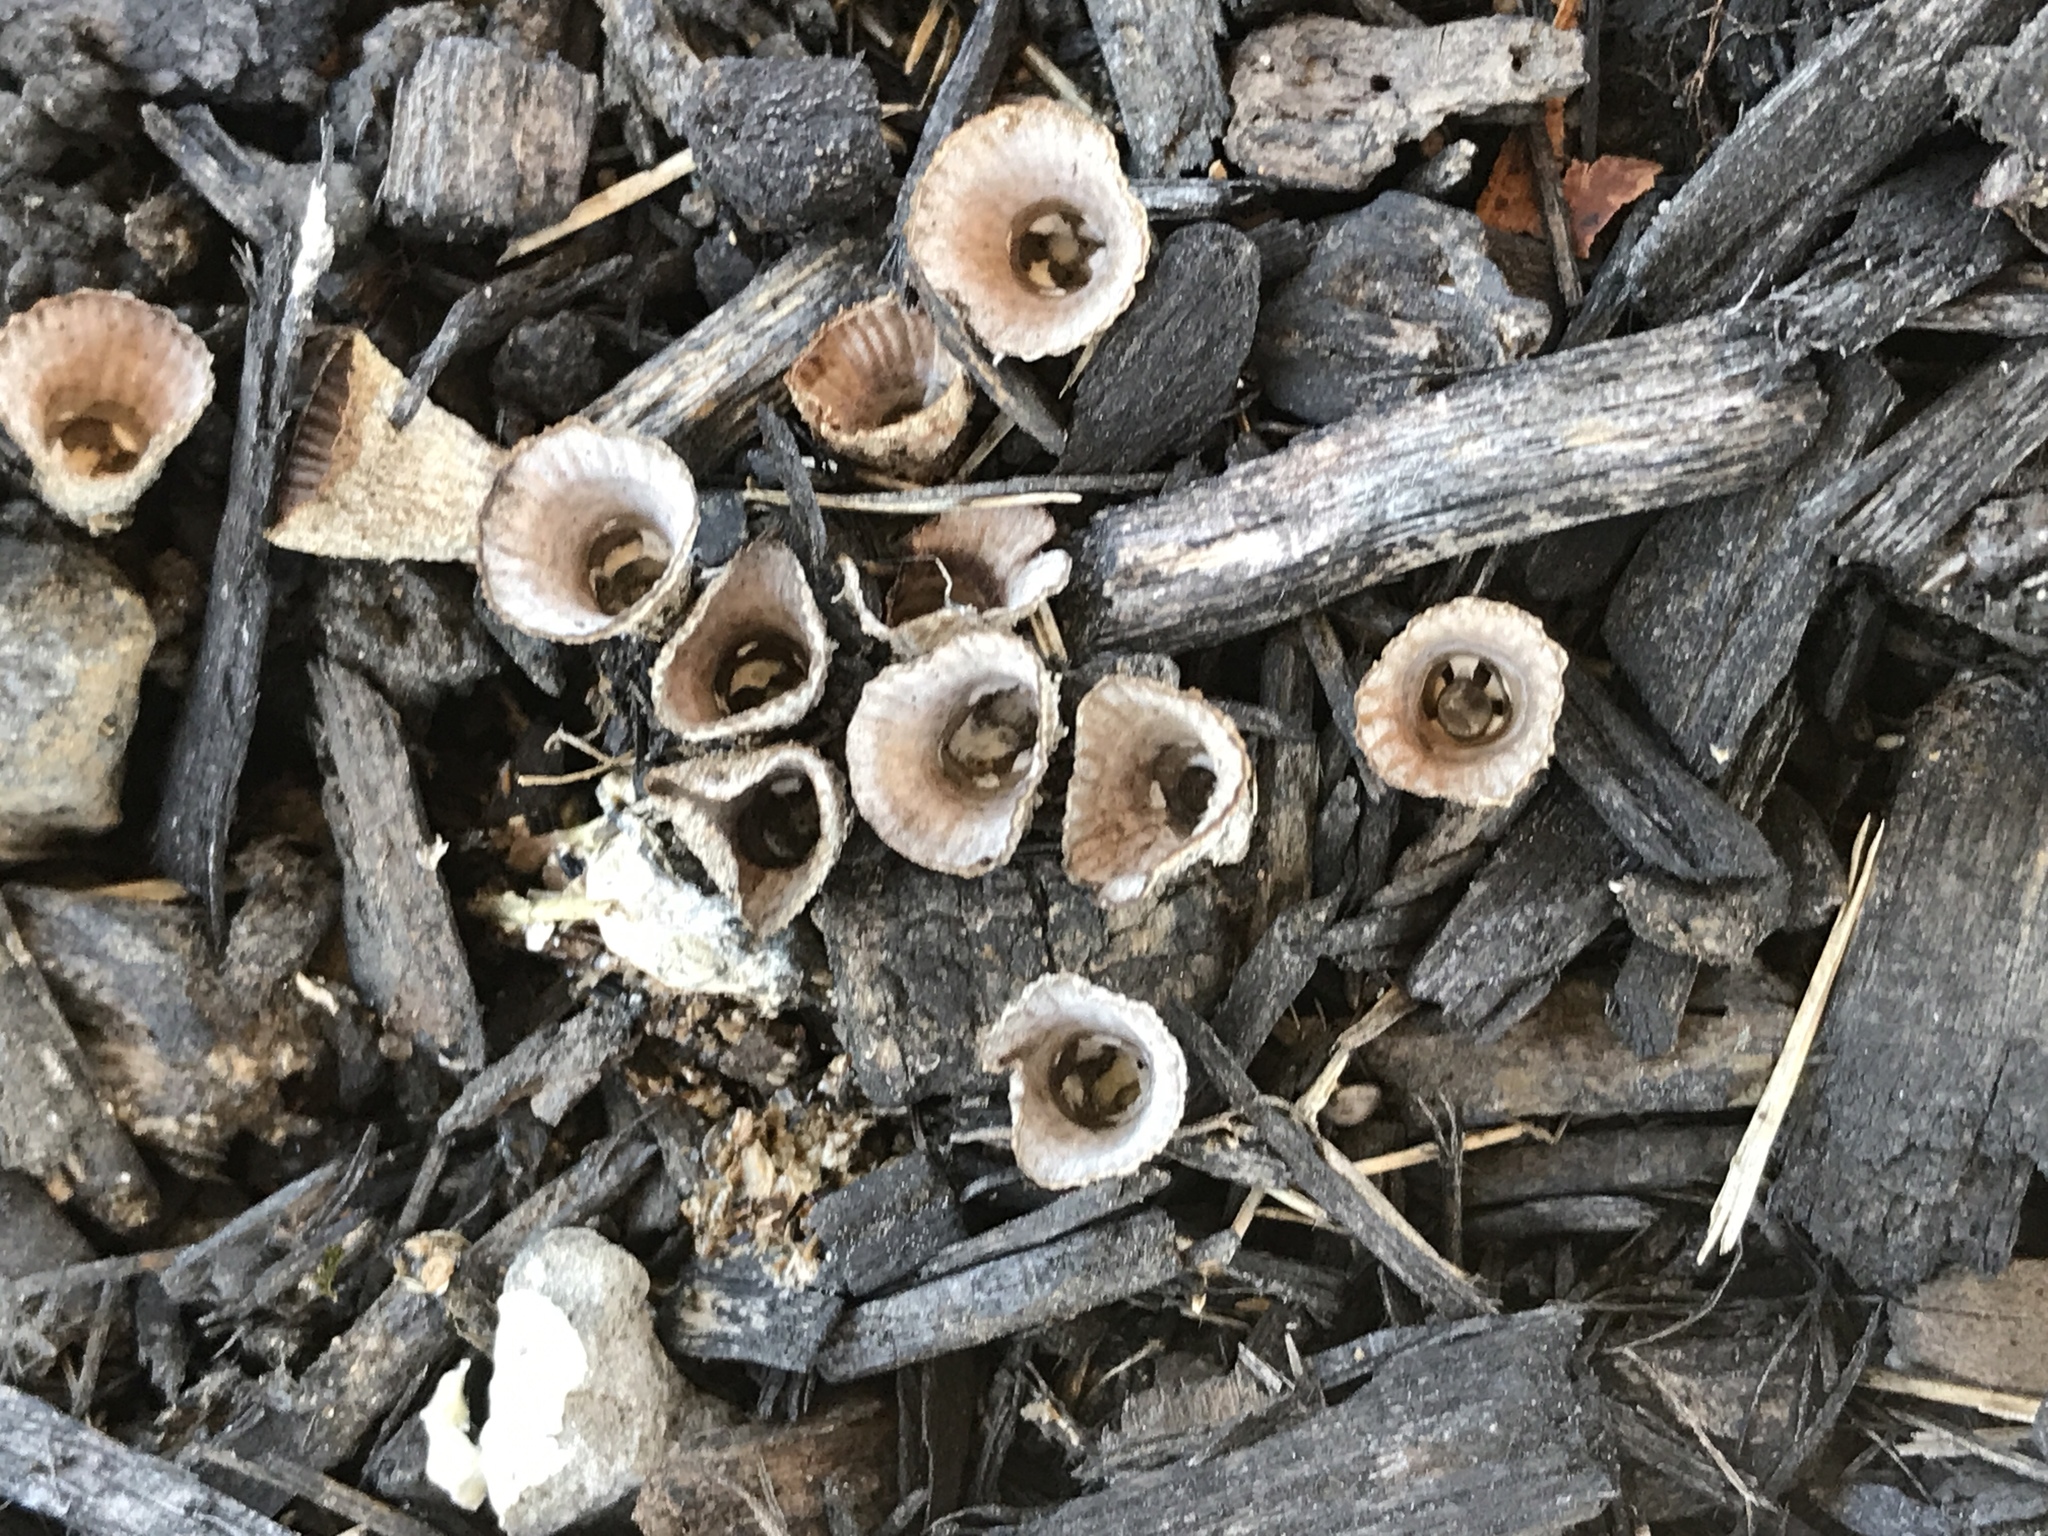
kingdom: Fungi
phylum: Basidiomycota
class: Agaricomycetes
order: Agaricales
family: Agaricaceae
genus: Cyathus
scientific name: Cyathus striatus
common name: Fluted bird's nest
